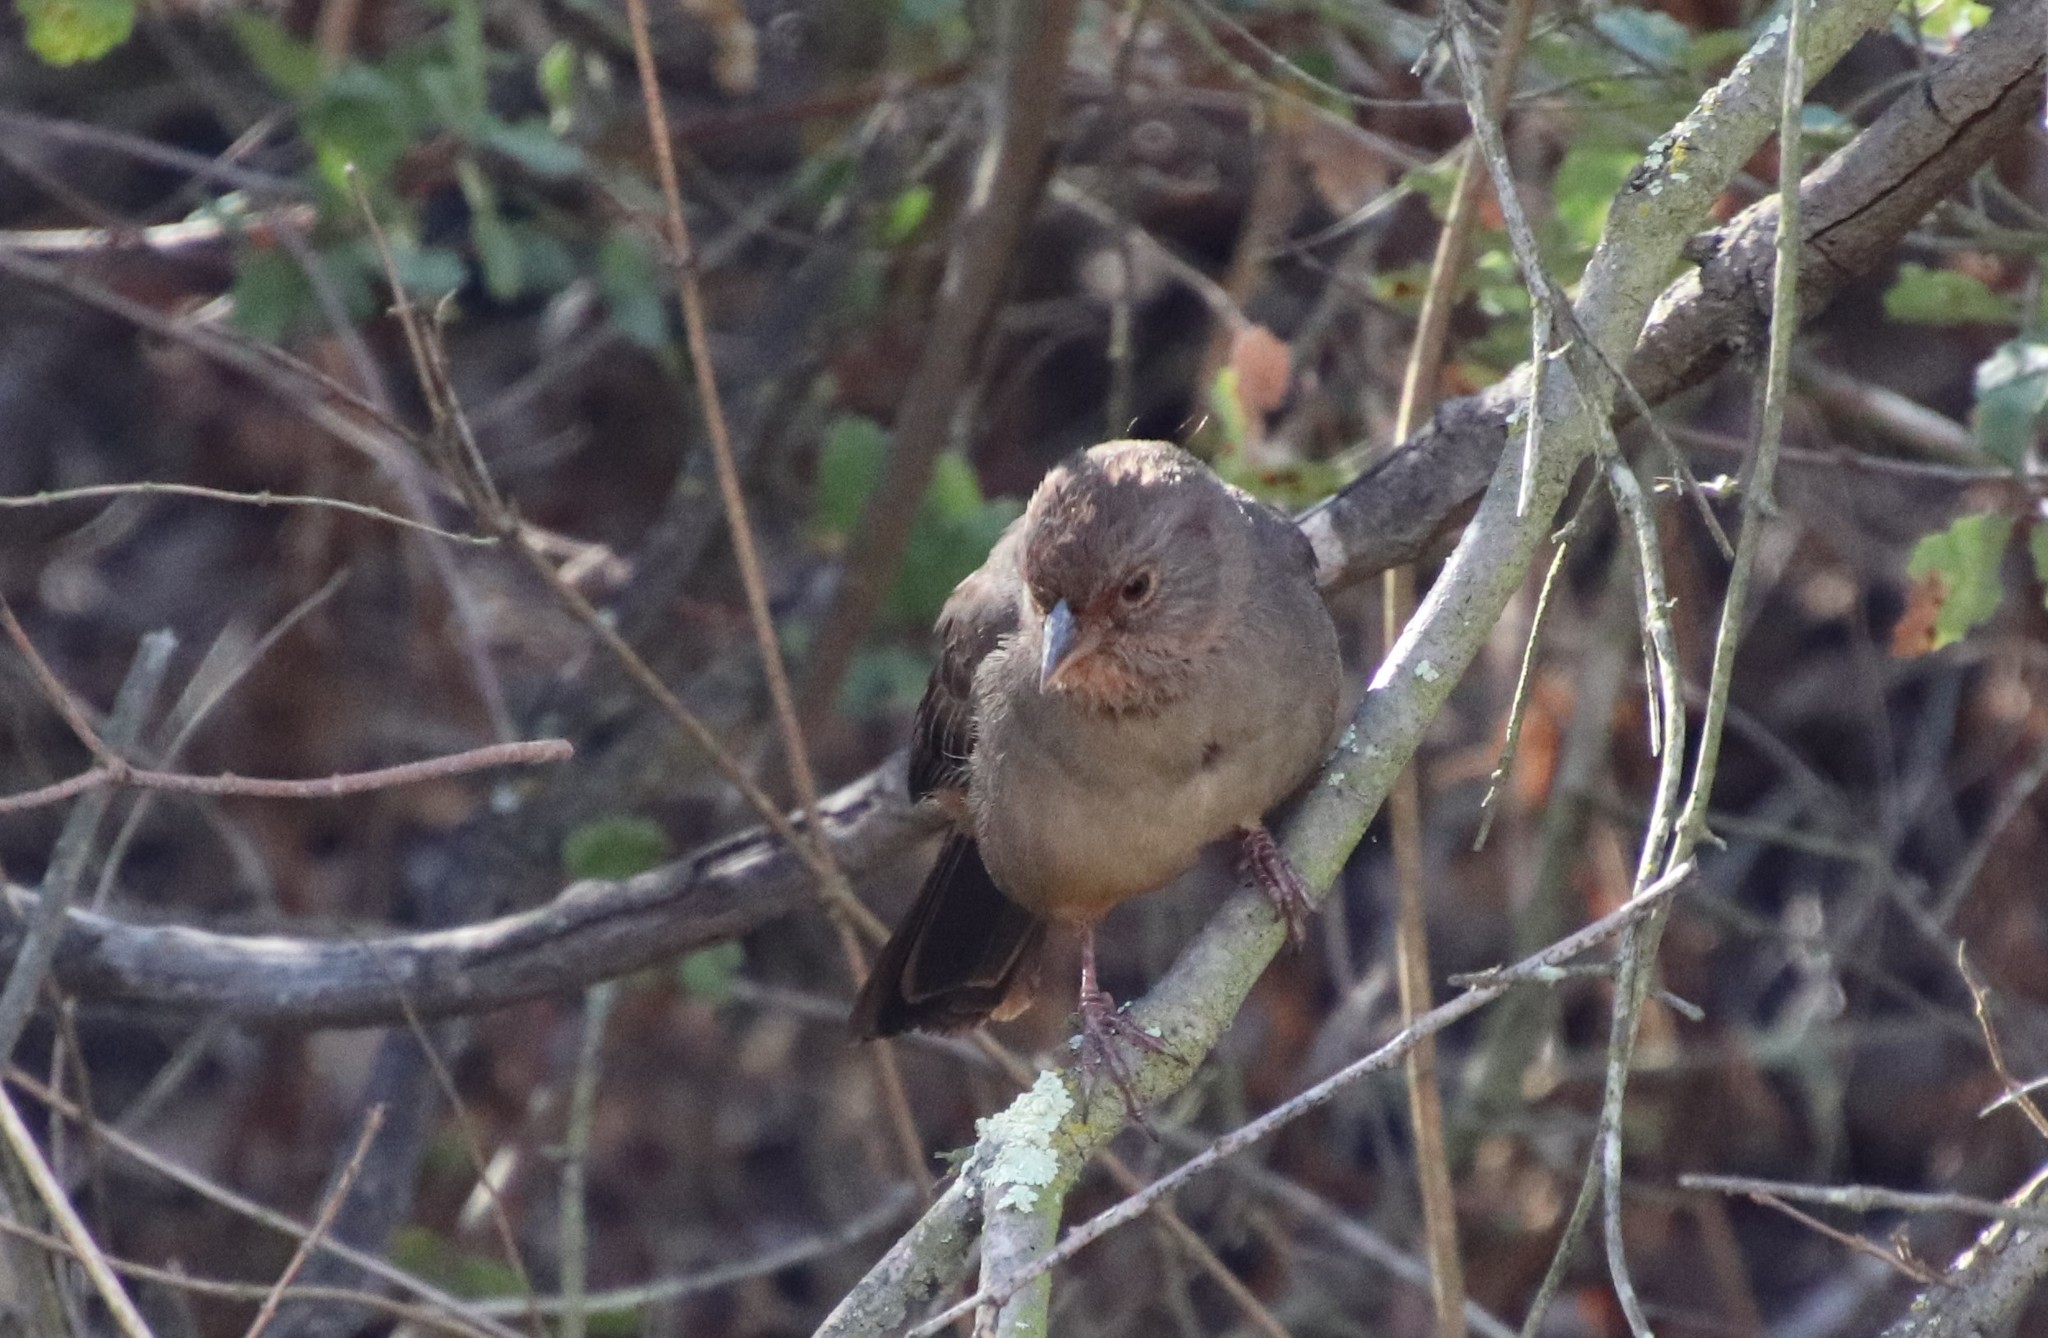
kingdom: Animalia
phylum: Chordata
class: Aves
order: Passeriformes
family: Passerellidae
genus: Melozone
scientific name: Melozone crissalis
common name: California towhee
